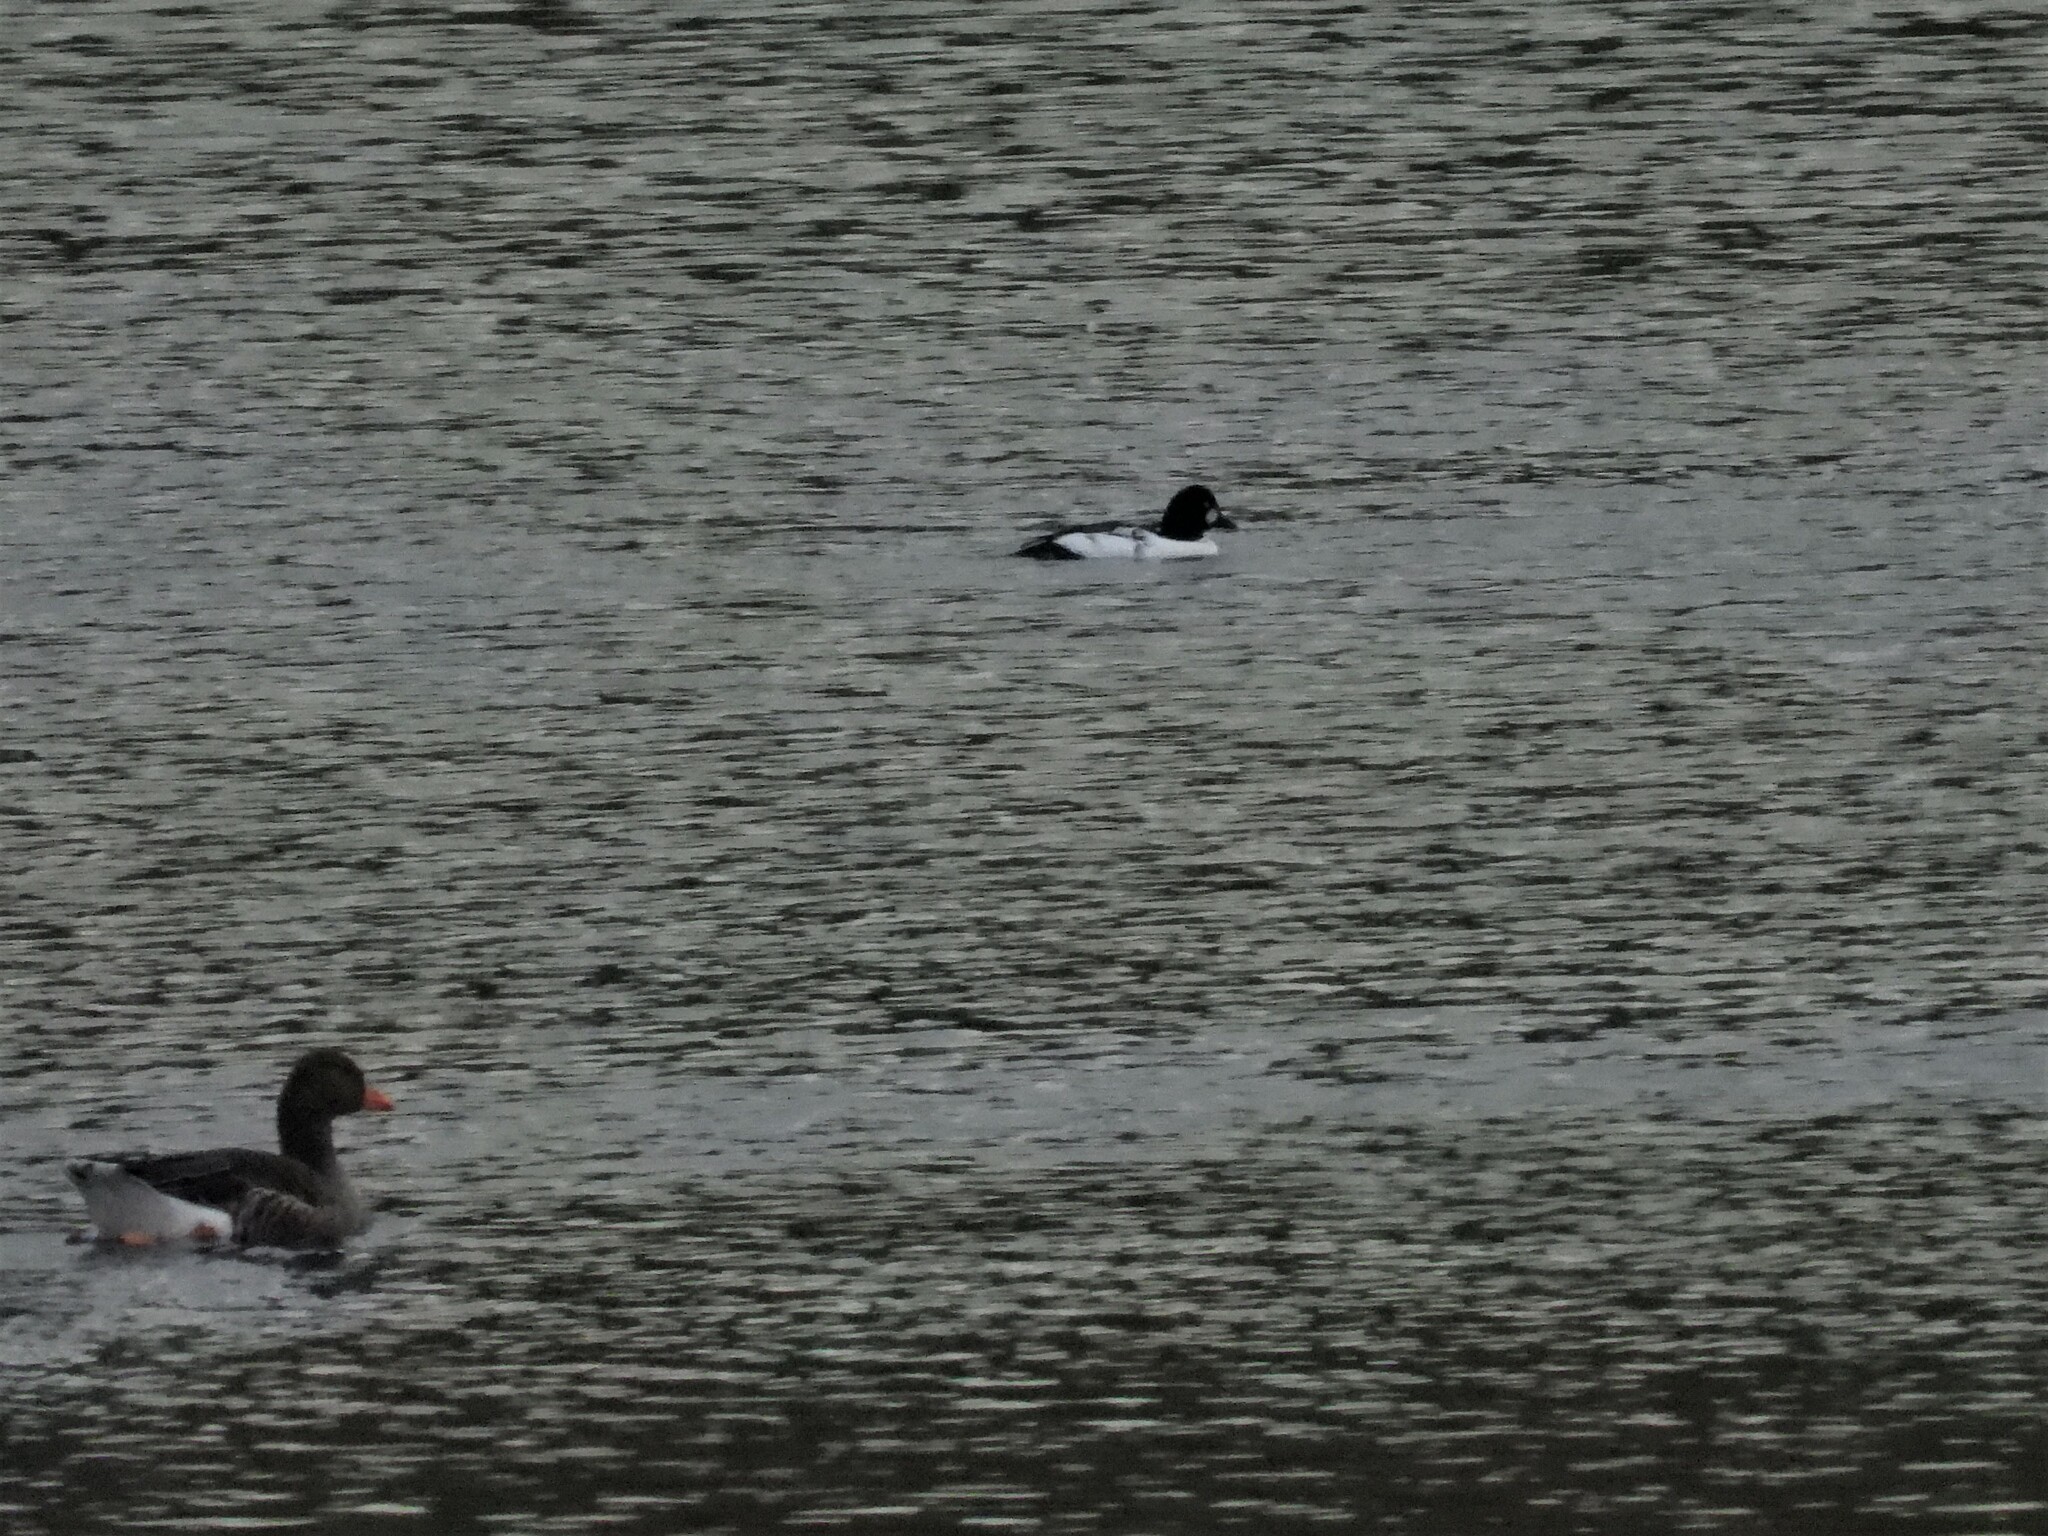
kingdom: Animalia
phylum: Chordata
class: Aves
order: Anseriformes
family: Anatidae
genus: Bucephala
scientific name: Bucephala clangula
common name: Common goldeneye
